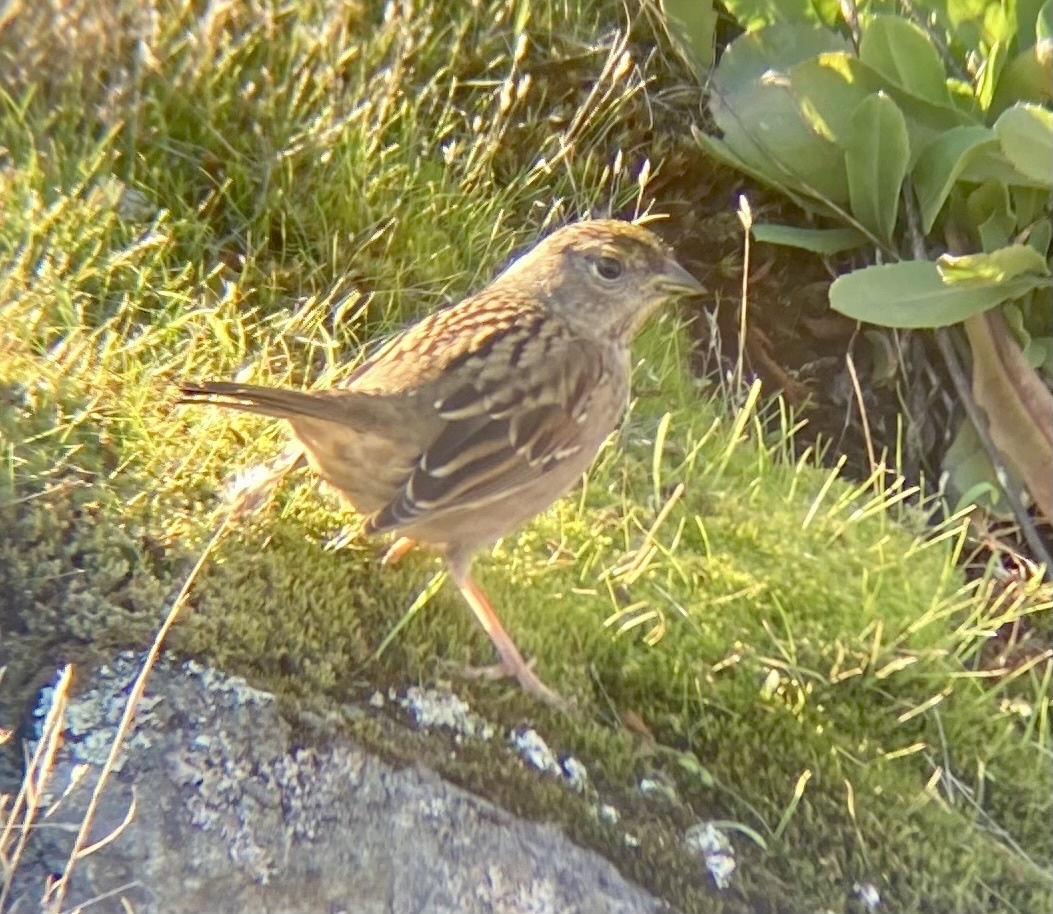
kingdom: Animalia
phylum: Chordata
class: Aves
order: Passeriformes
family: Passerellidae
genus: Zonotrichia
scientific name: Zonotrichia atricapilla
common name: Golden-crowned sparrow
